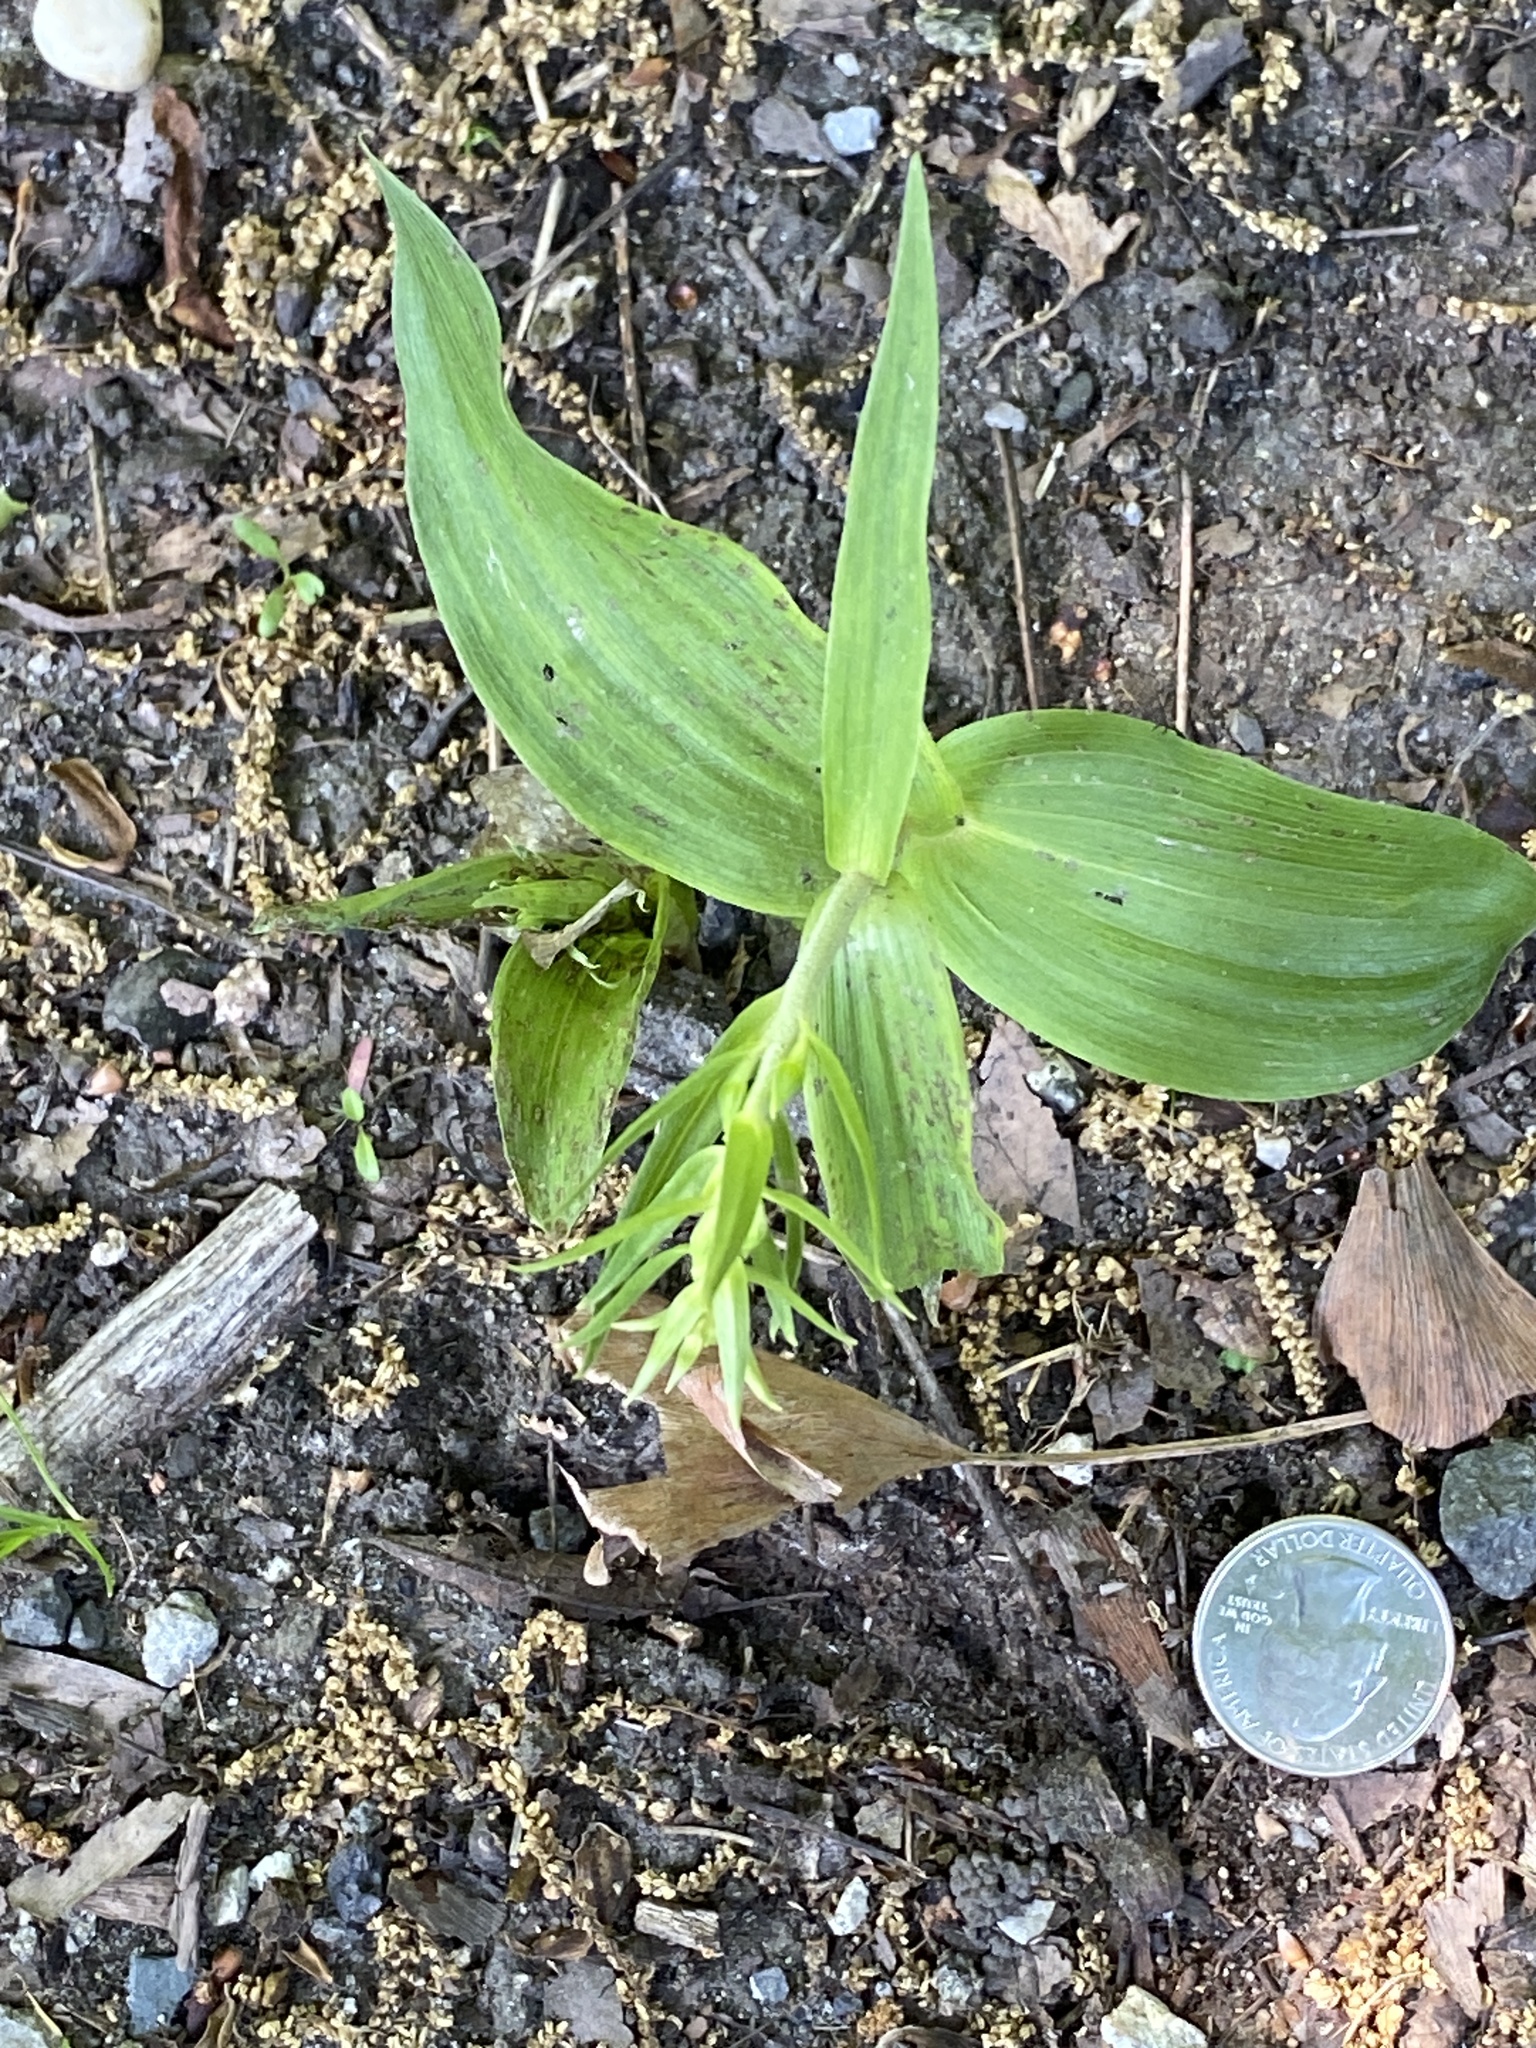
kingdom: Plantae
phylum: Tracheophyta
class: Liliopsida
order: Asparagales
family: Orchidaceae
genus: Epipactis
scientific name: Epipactis helleborine
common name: Broad-leaved helleborine
